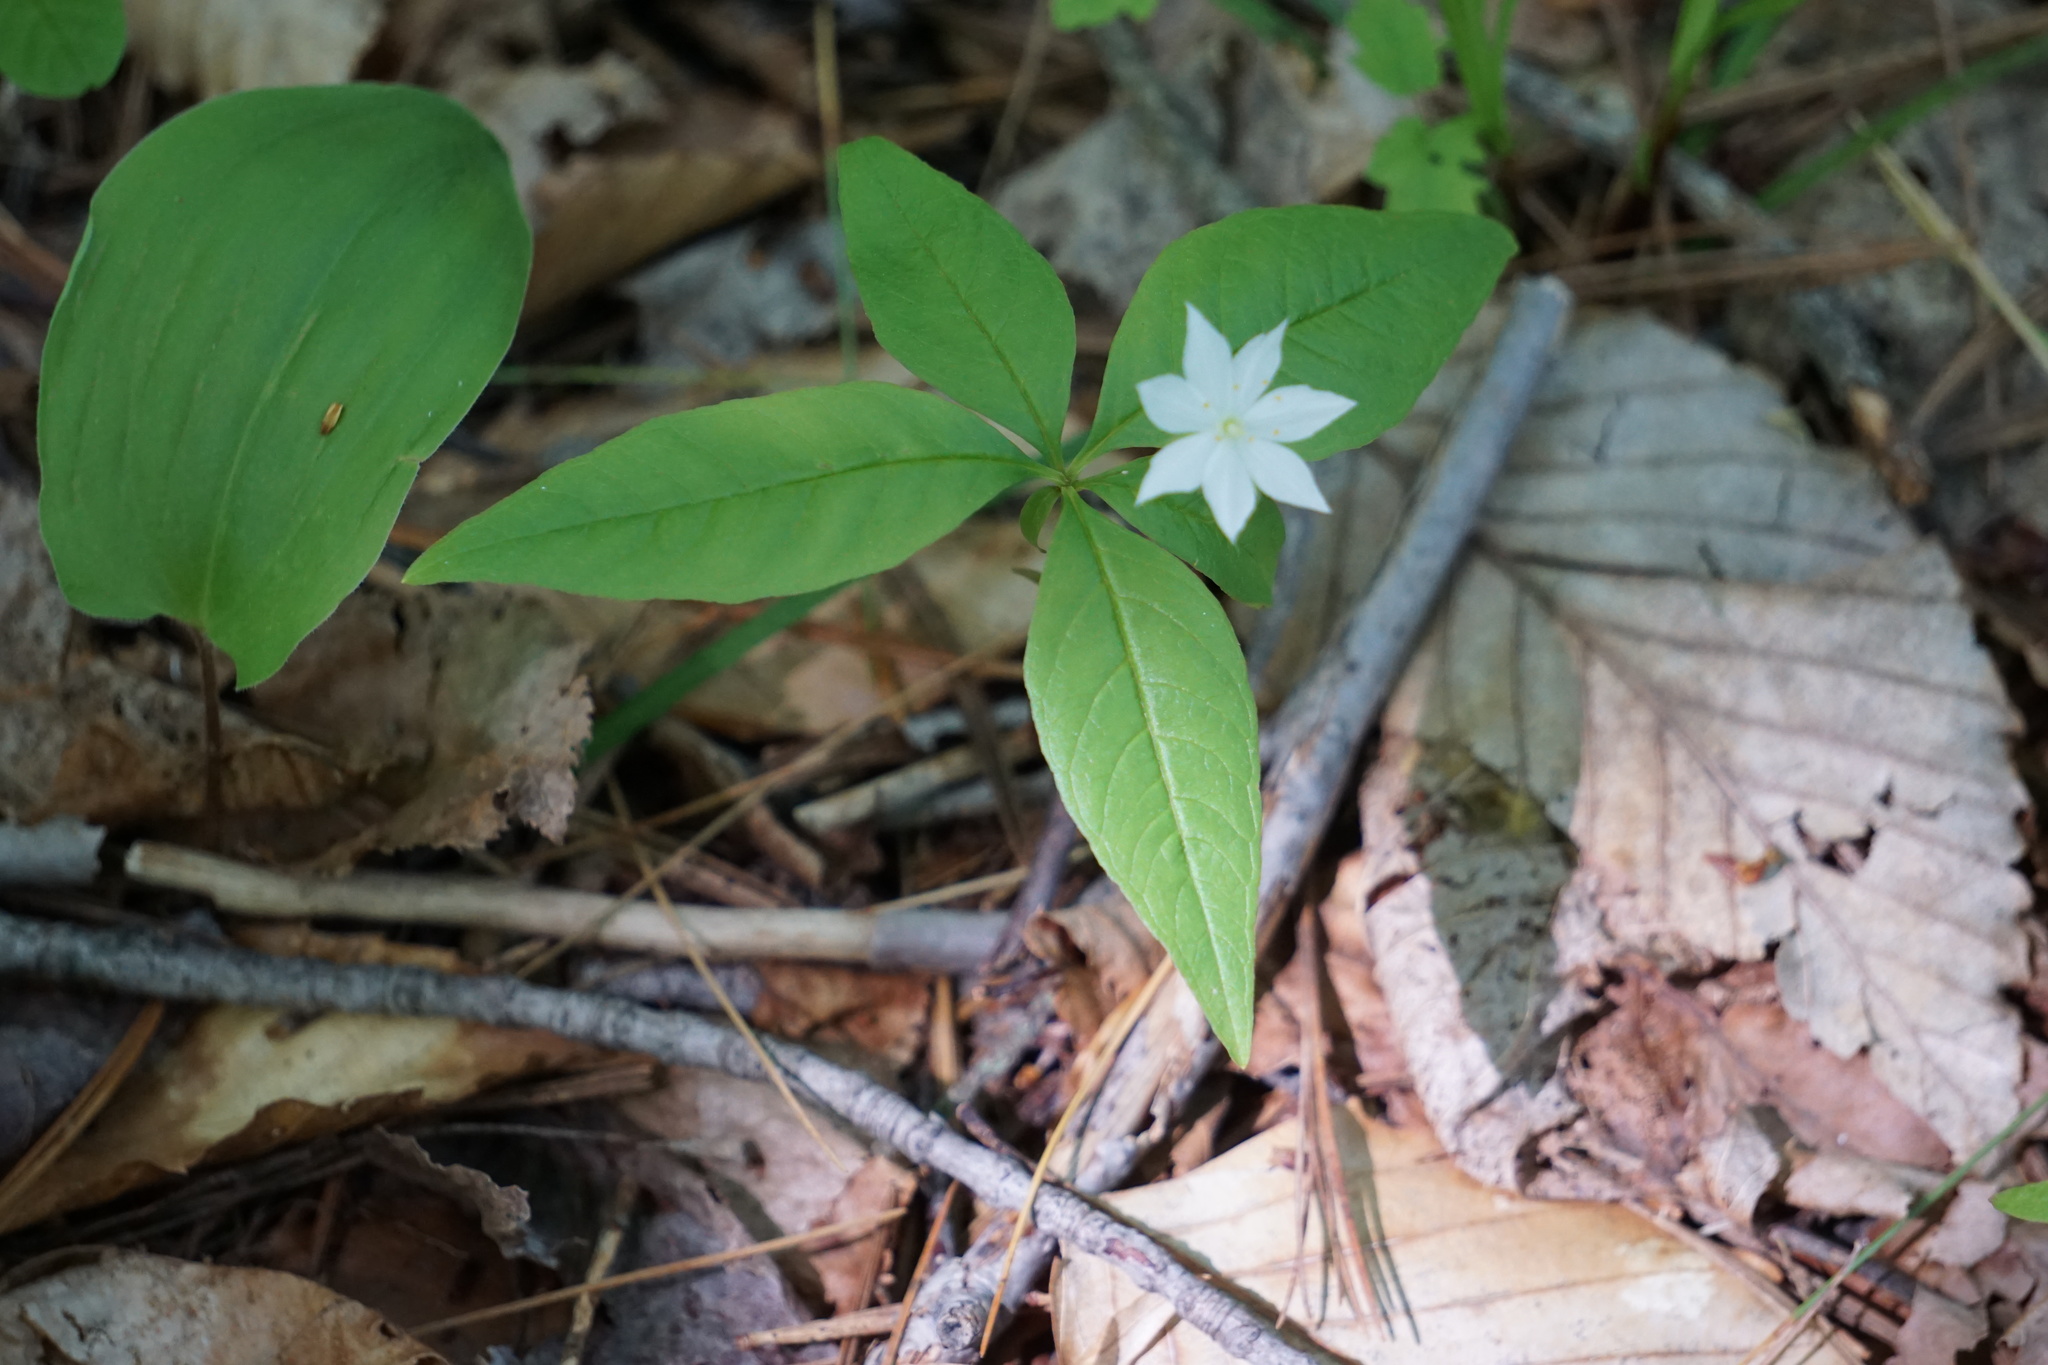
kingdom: Plantae
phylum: Tracheophyta
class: Magnoliopsida
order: Ericales
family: Primulaceae
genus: Lysimachia
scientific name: Lysimachia borealis
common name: American starflower
